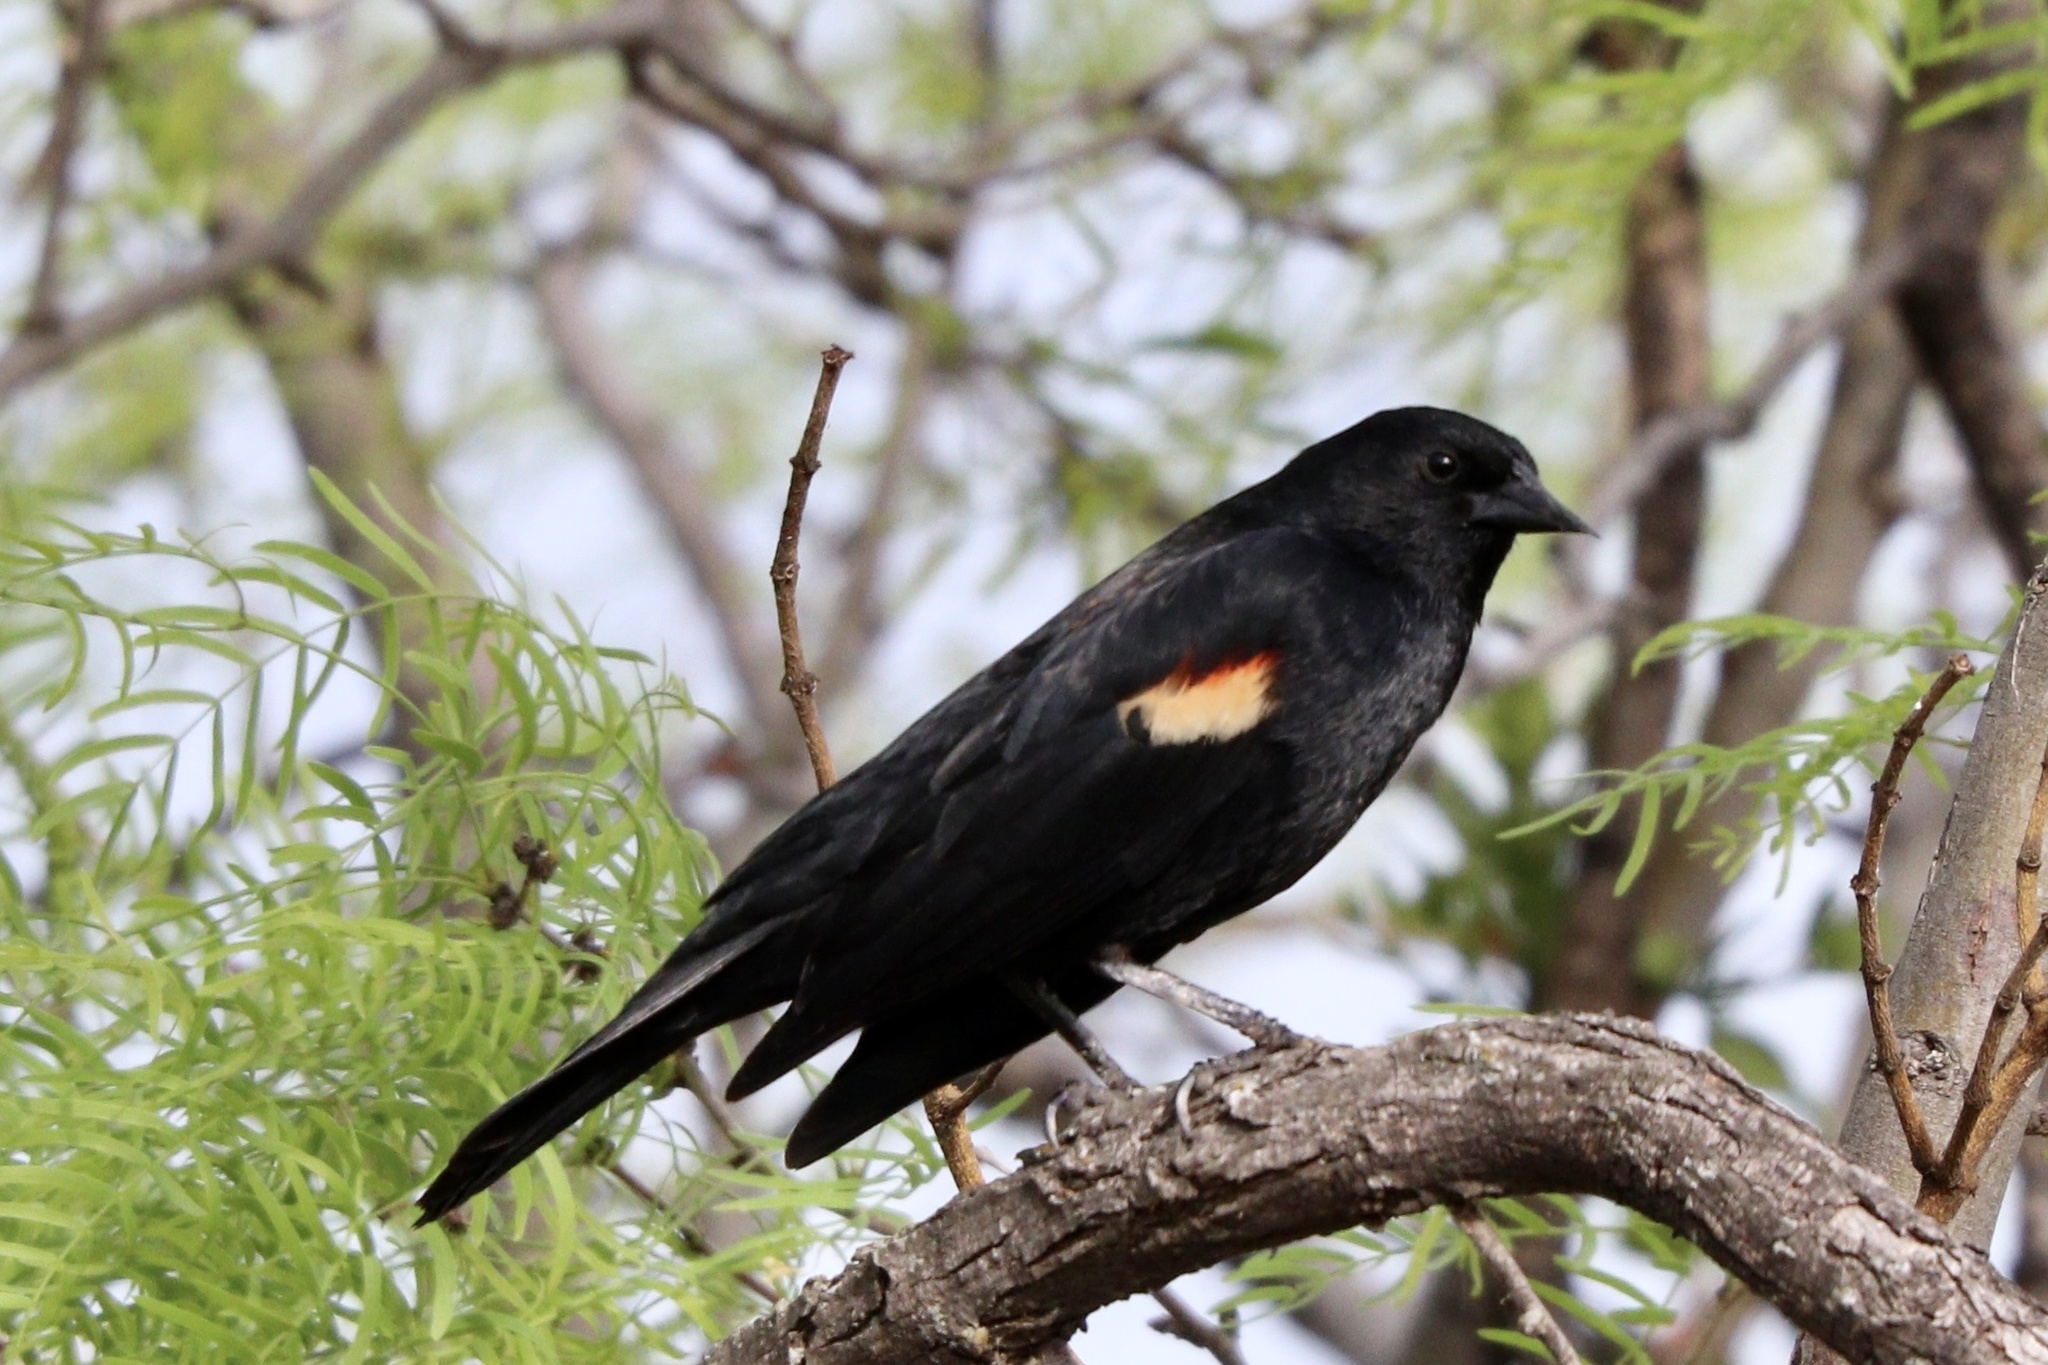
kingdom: Animalia
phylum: Chordata
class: Aves
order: Passeriformes
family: Icteridae
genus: Agelaius
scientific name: Agelaius phoeniceus
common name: Red-winged blackbird
